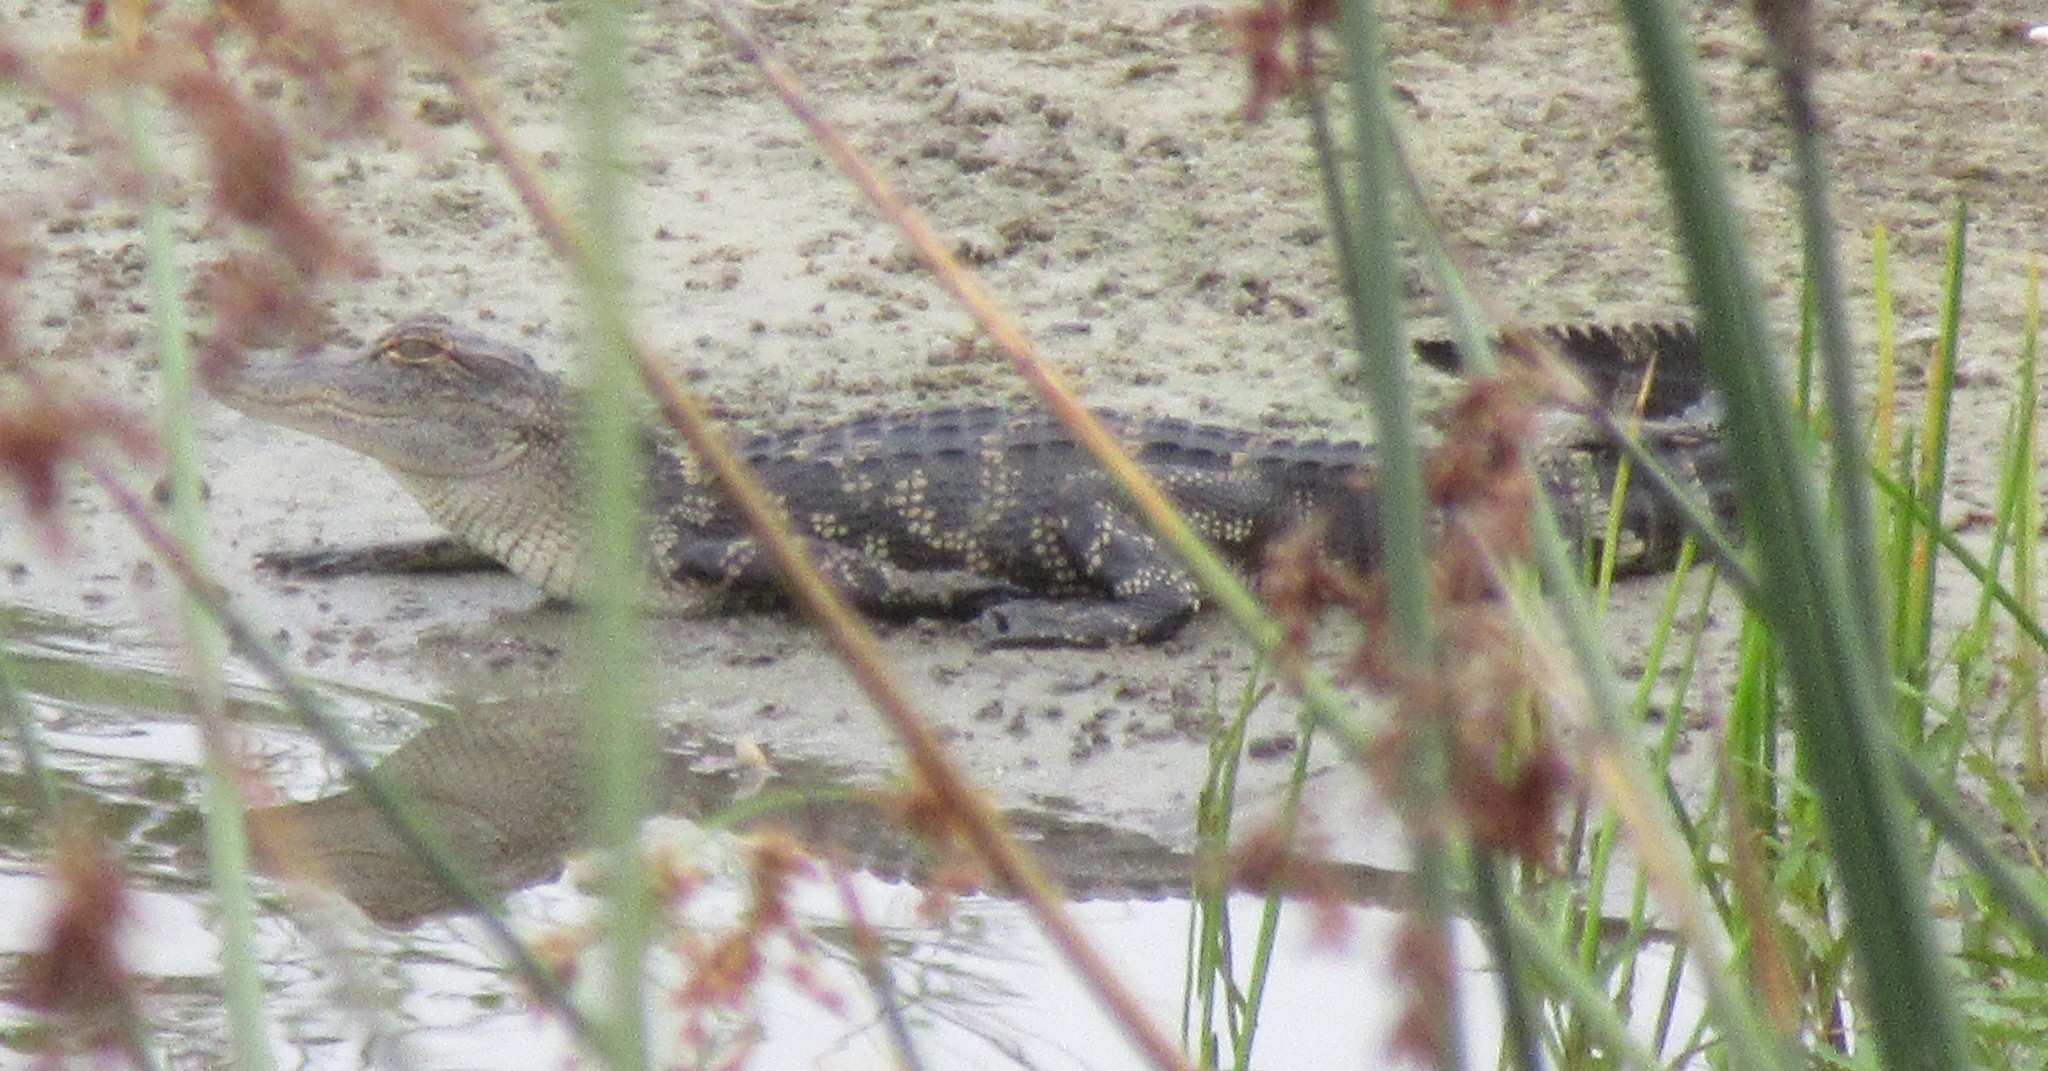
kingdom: Animalia
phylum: Chordata
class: Crocodylia
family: Alligatoridae
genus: Alligator
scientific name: Alligator mississippiensis
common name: American alligator
